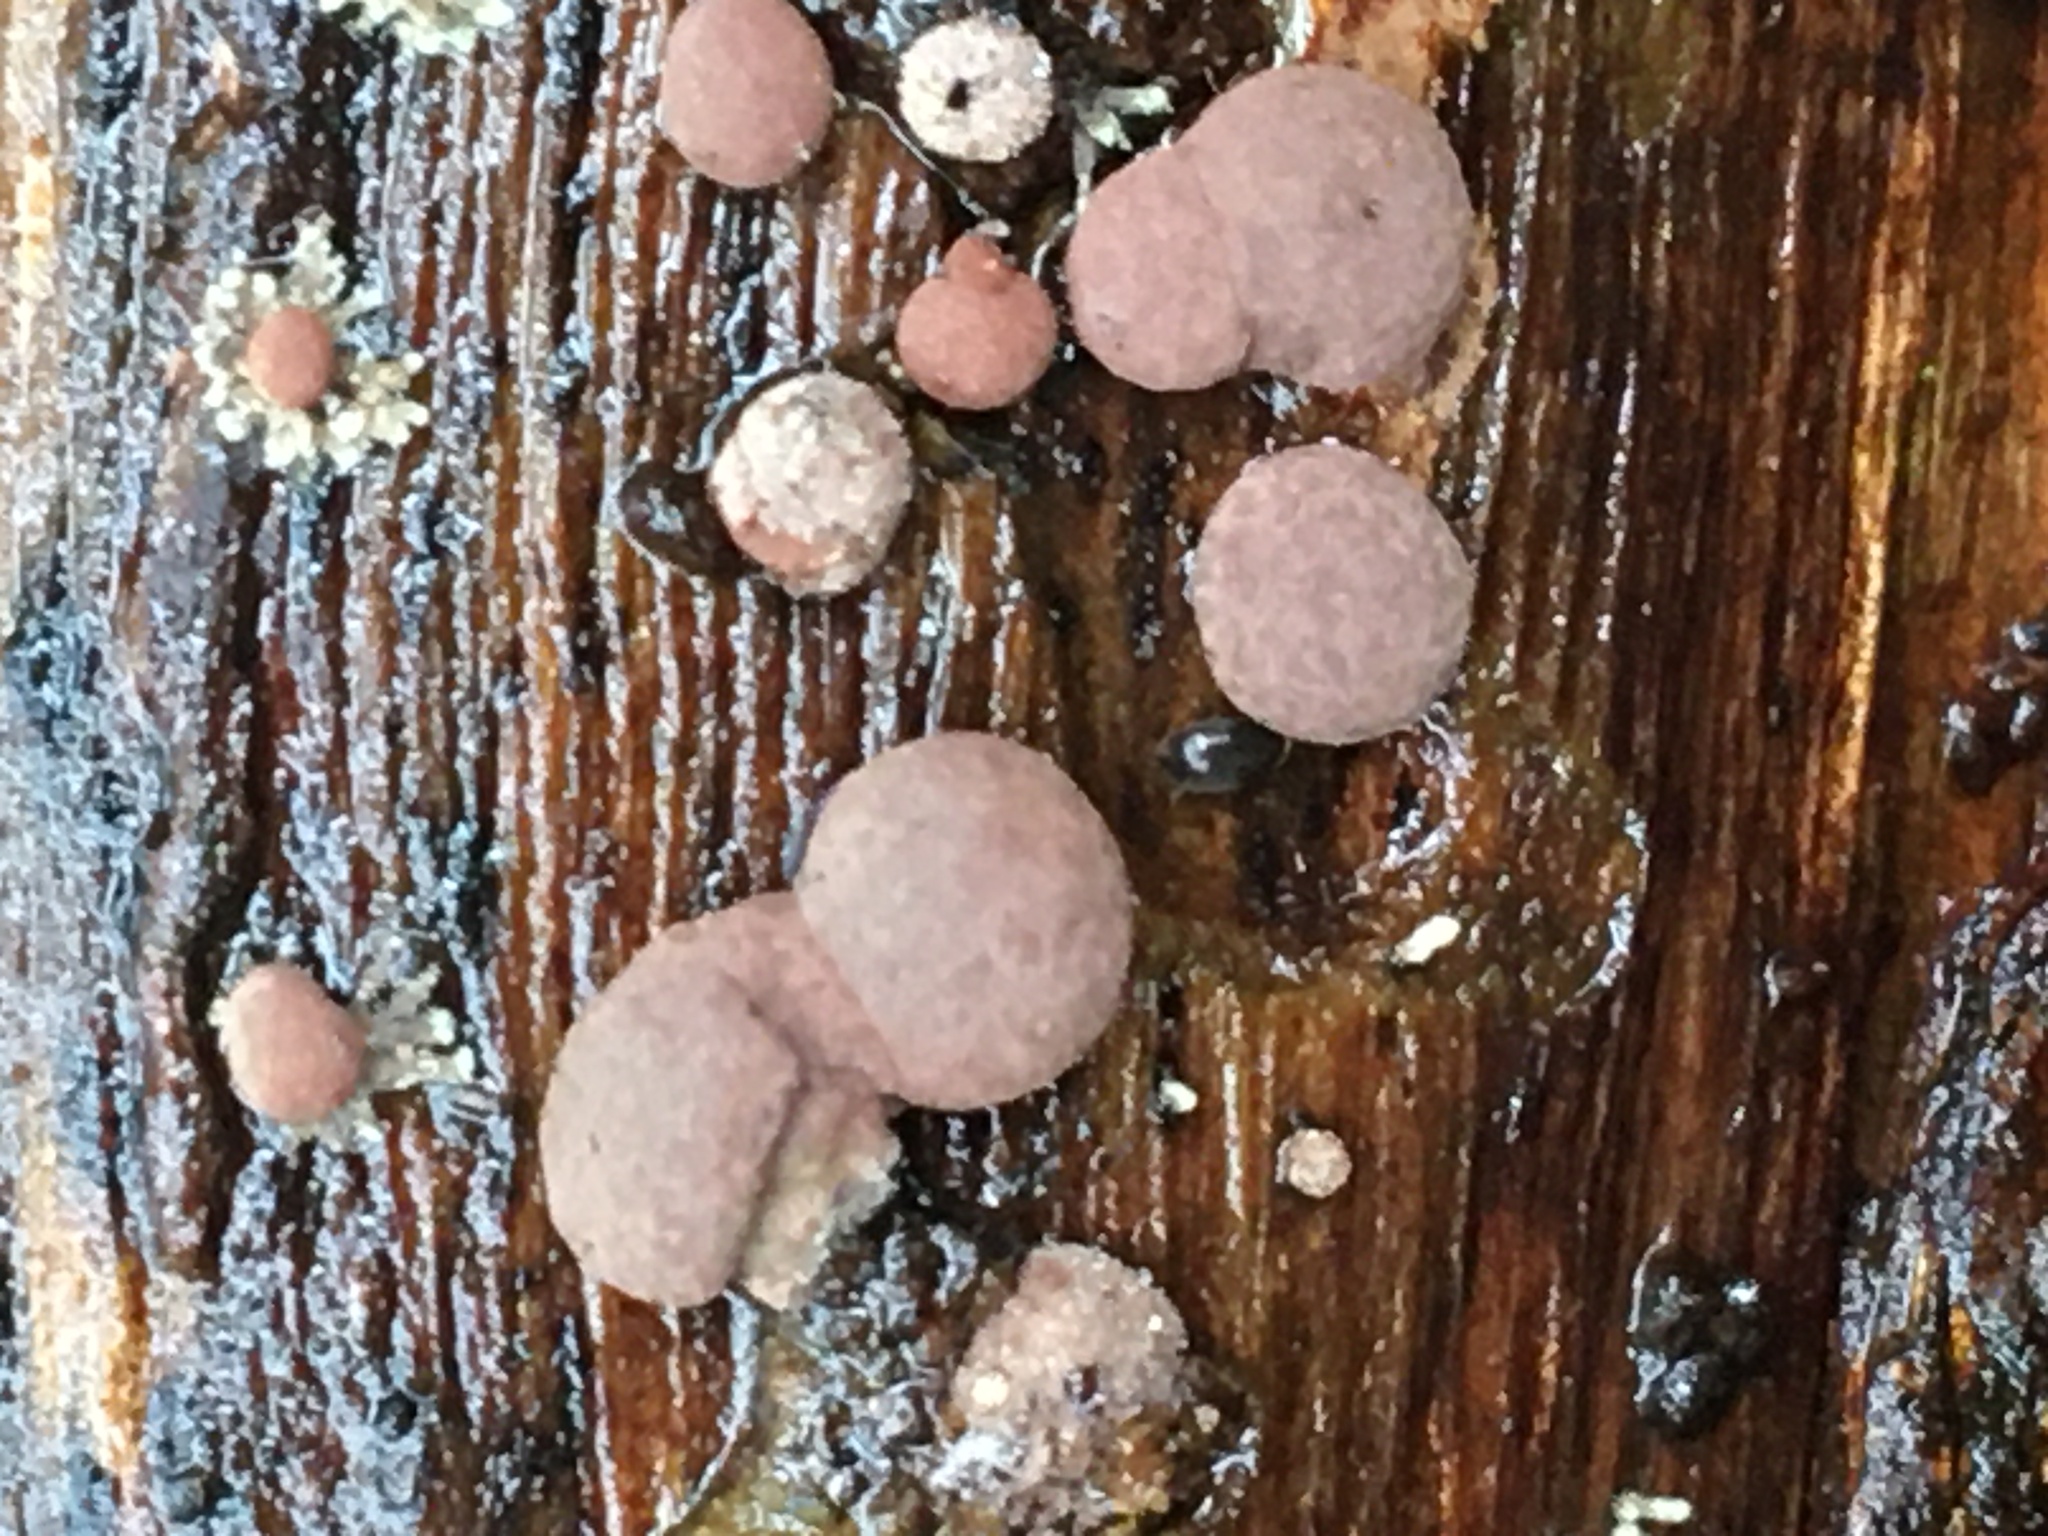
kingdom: Fungi
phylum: Ascomycota
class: Sordariomycetes
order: Xylariales
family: Hypoxylaceae
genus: Hypoxylon
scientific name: Hypoxylon howeanum
